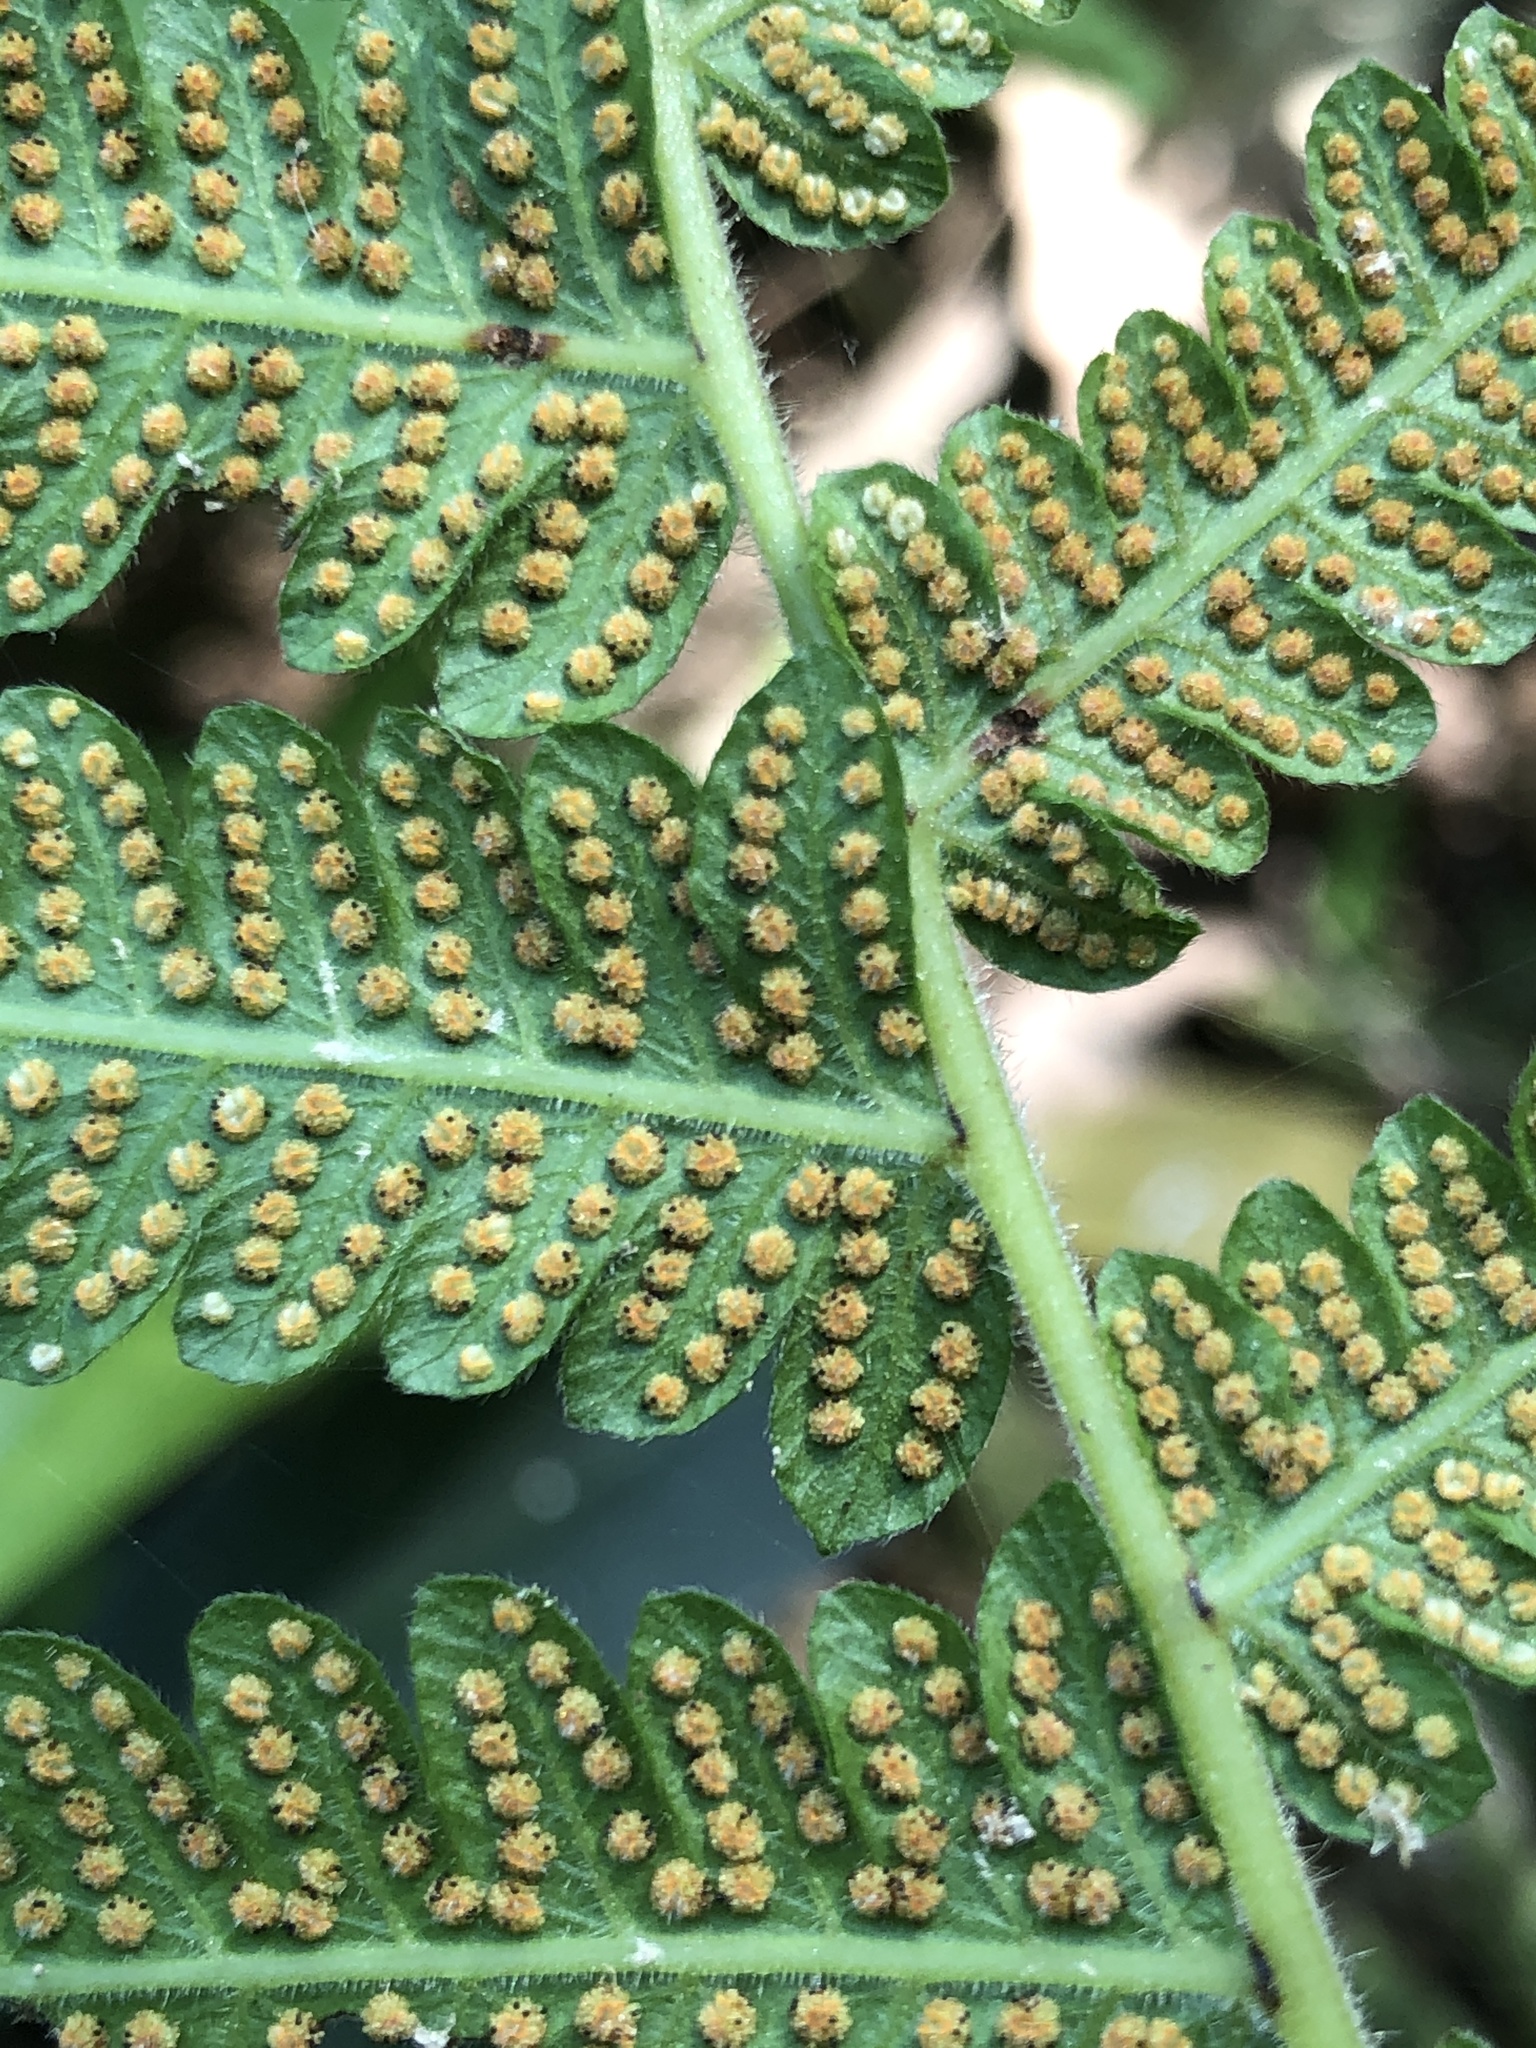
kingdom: Plantae
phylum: Tracheophyta
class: Polypodiopsida
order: Polypodiales
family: Thelypteridaceae
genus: Christella
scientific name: Christella parasitica
